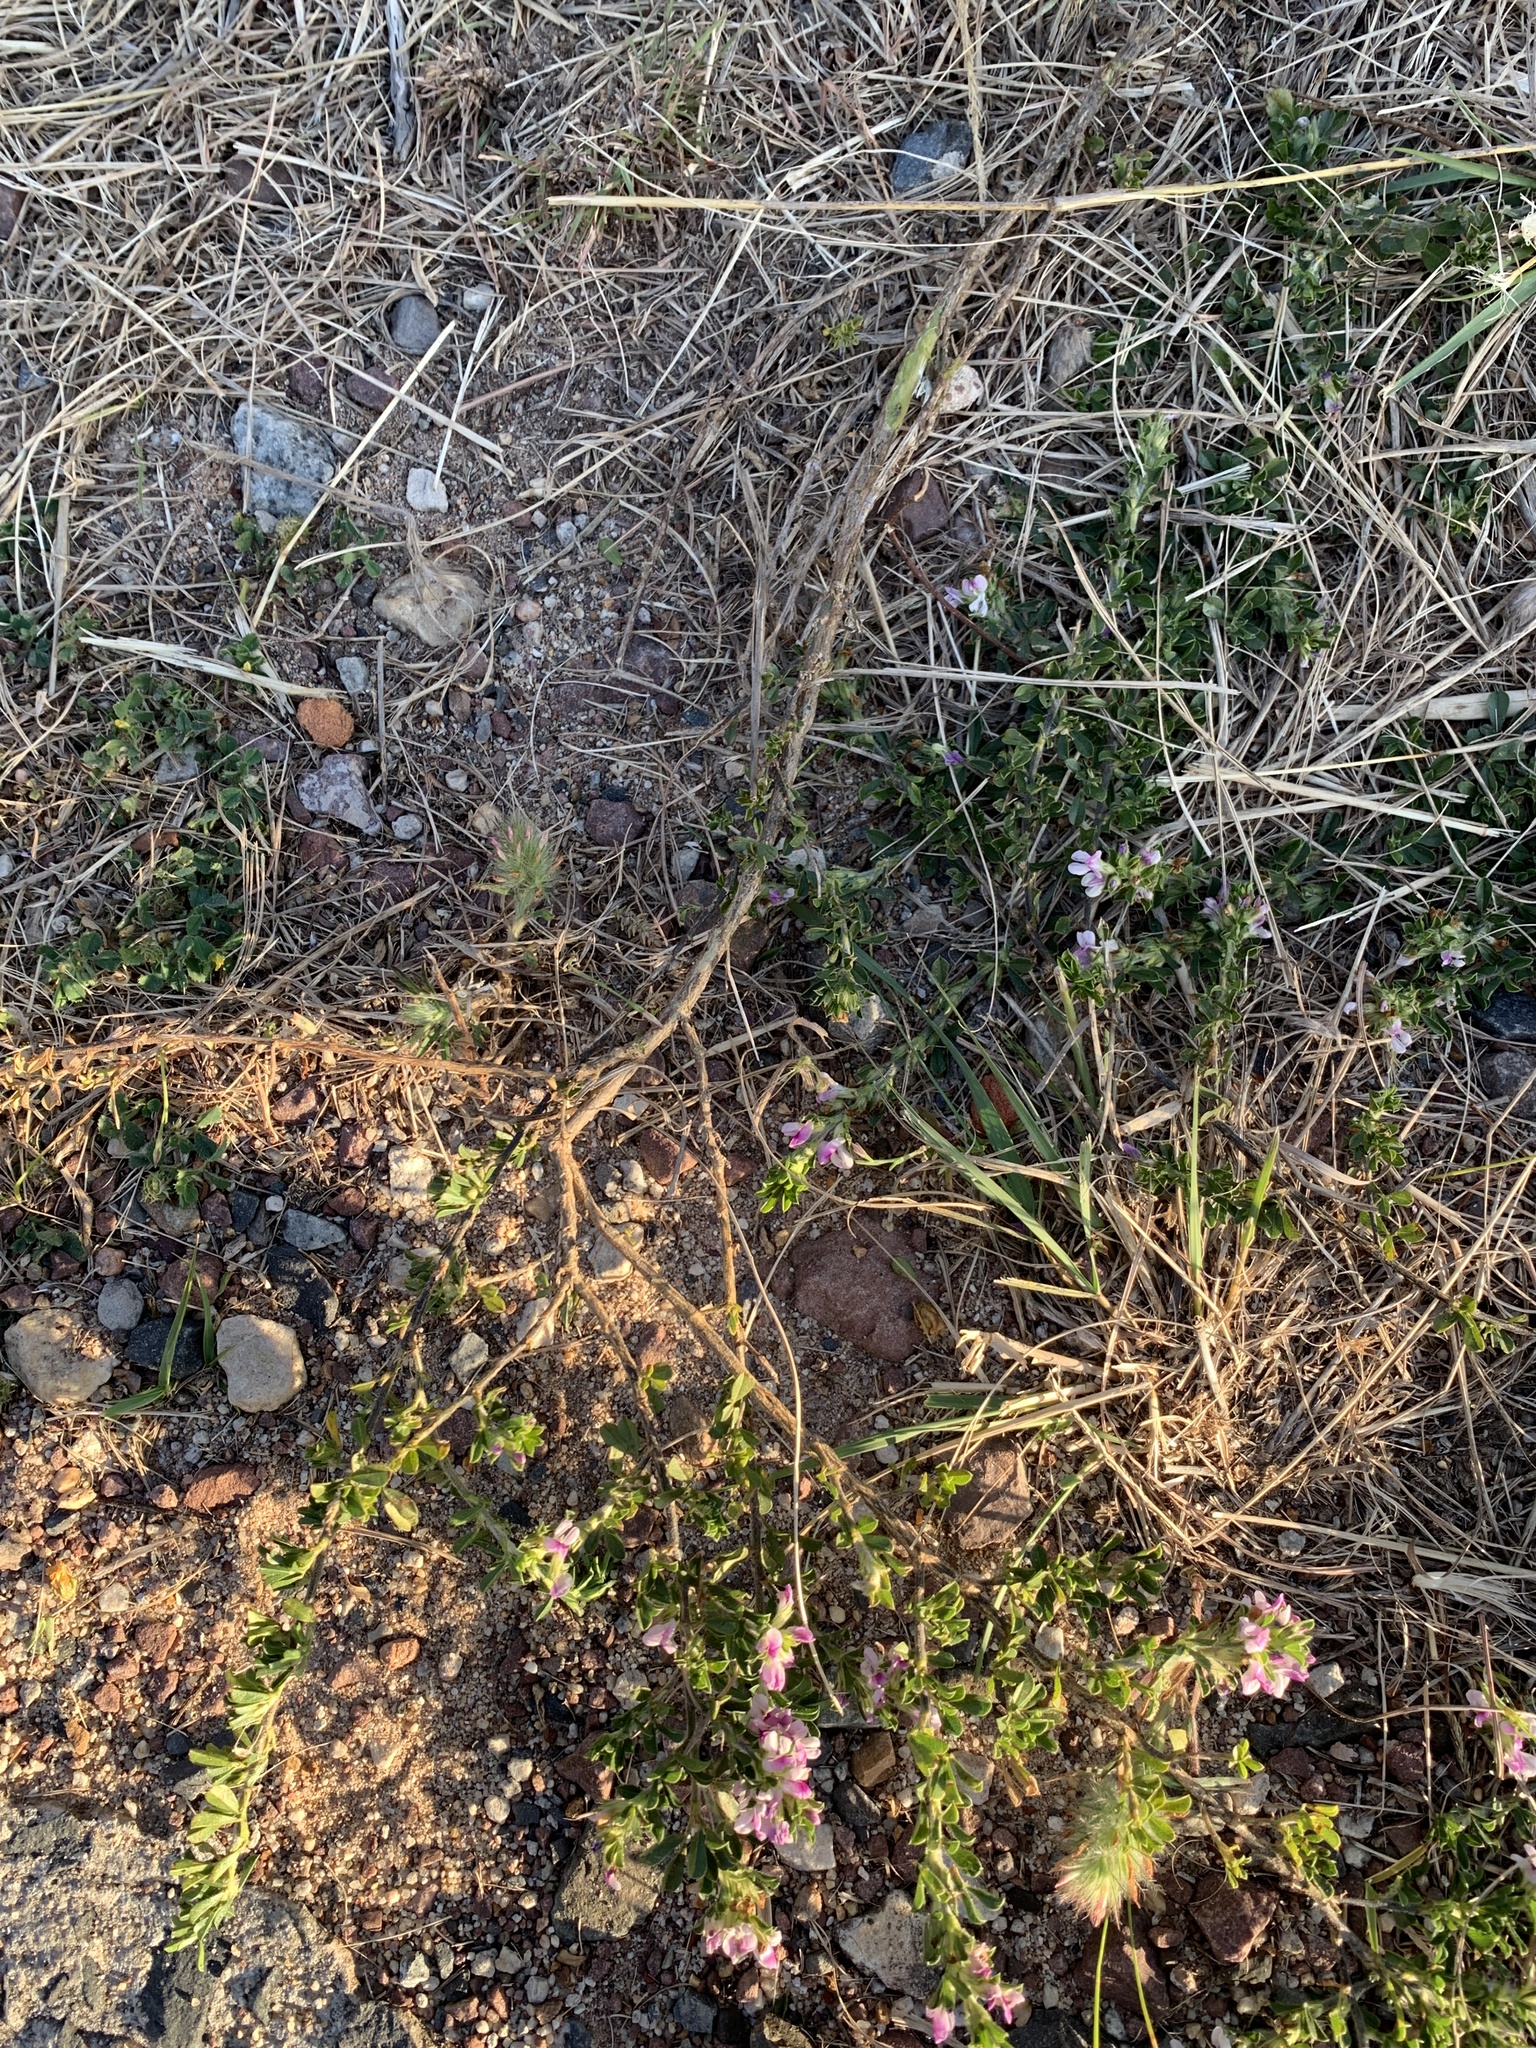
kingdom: Plantae
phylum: Tracheophyta
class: Magnoliopsida
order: Fabales
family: Fabaceae
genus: Psoralea
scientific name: Psoralea
